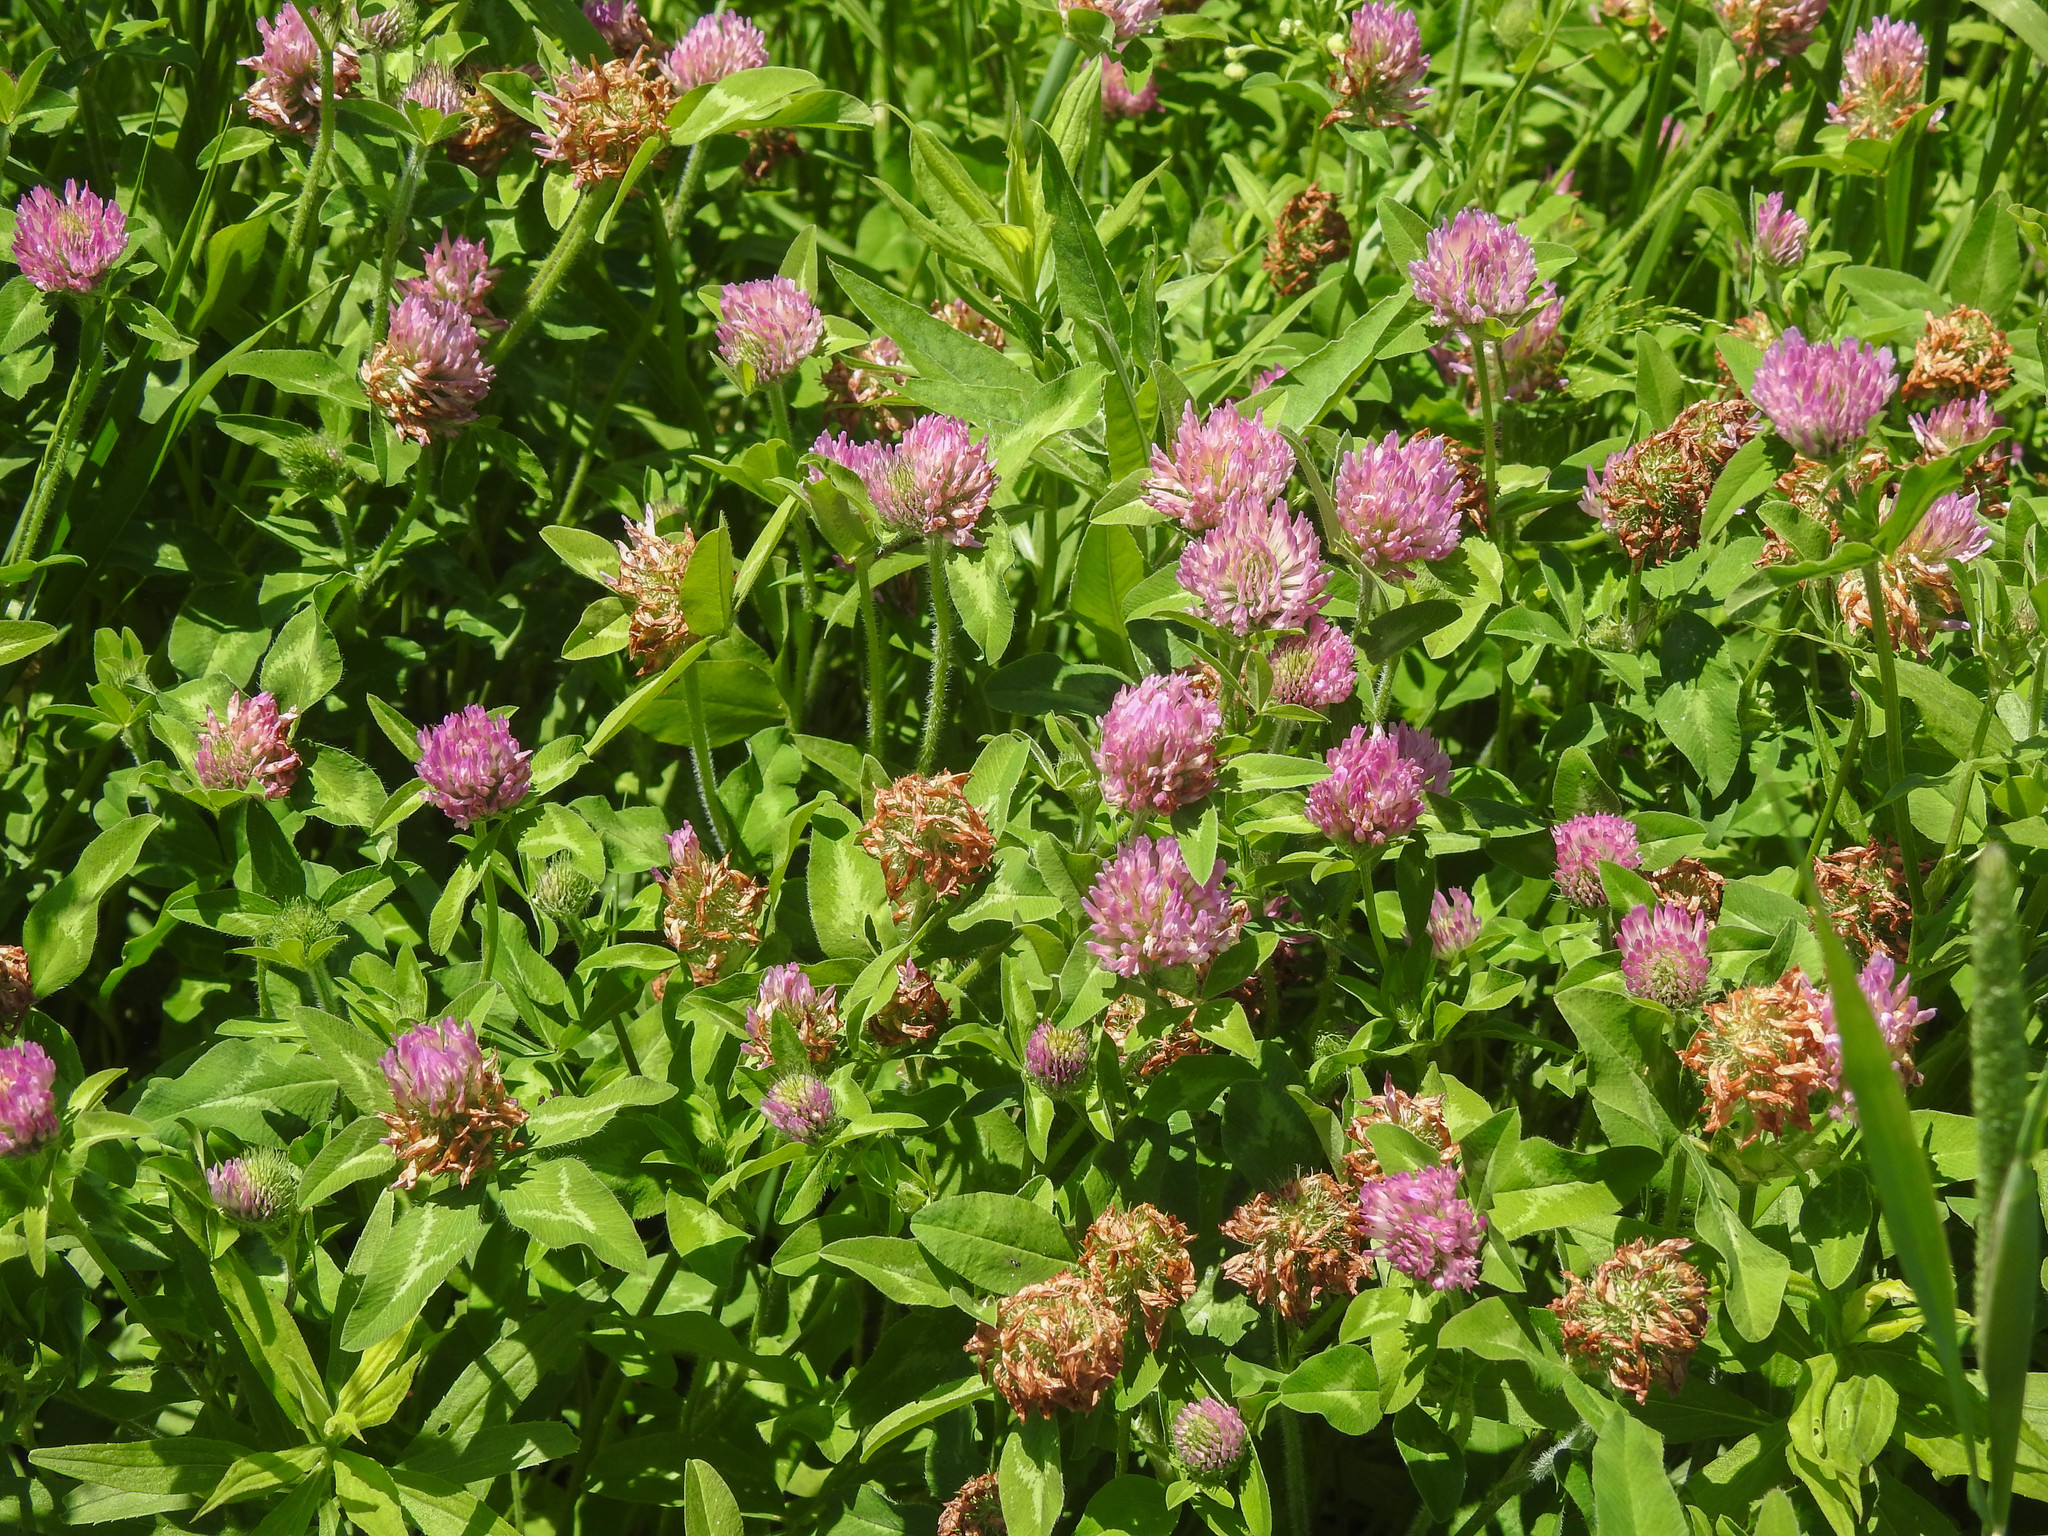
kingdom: Plantae
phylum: Tracheophyta
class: Magnoliopsida
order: Fabales
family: Fabaceae
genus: Trifolium
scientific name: Trifolium pratense
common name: Red clover
